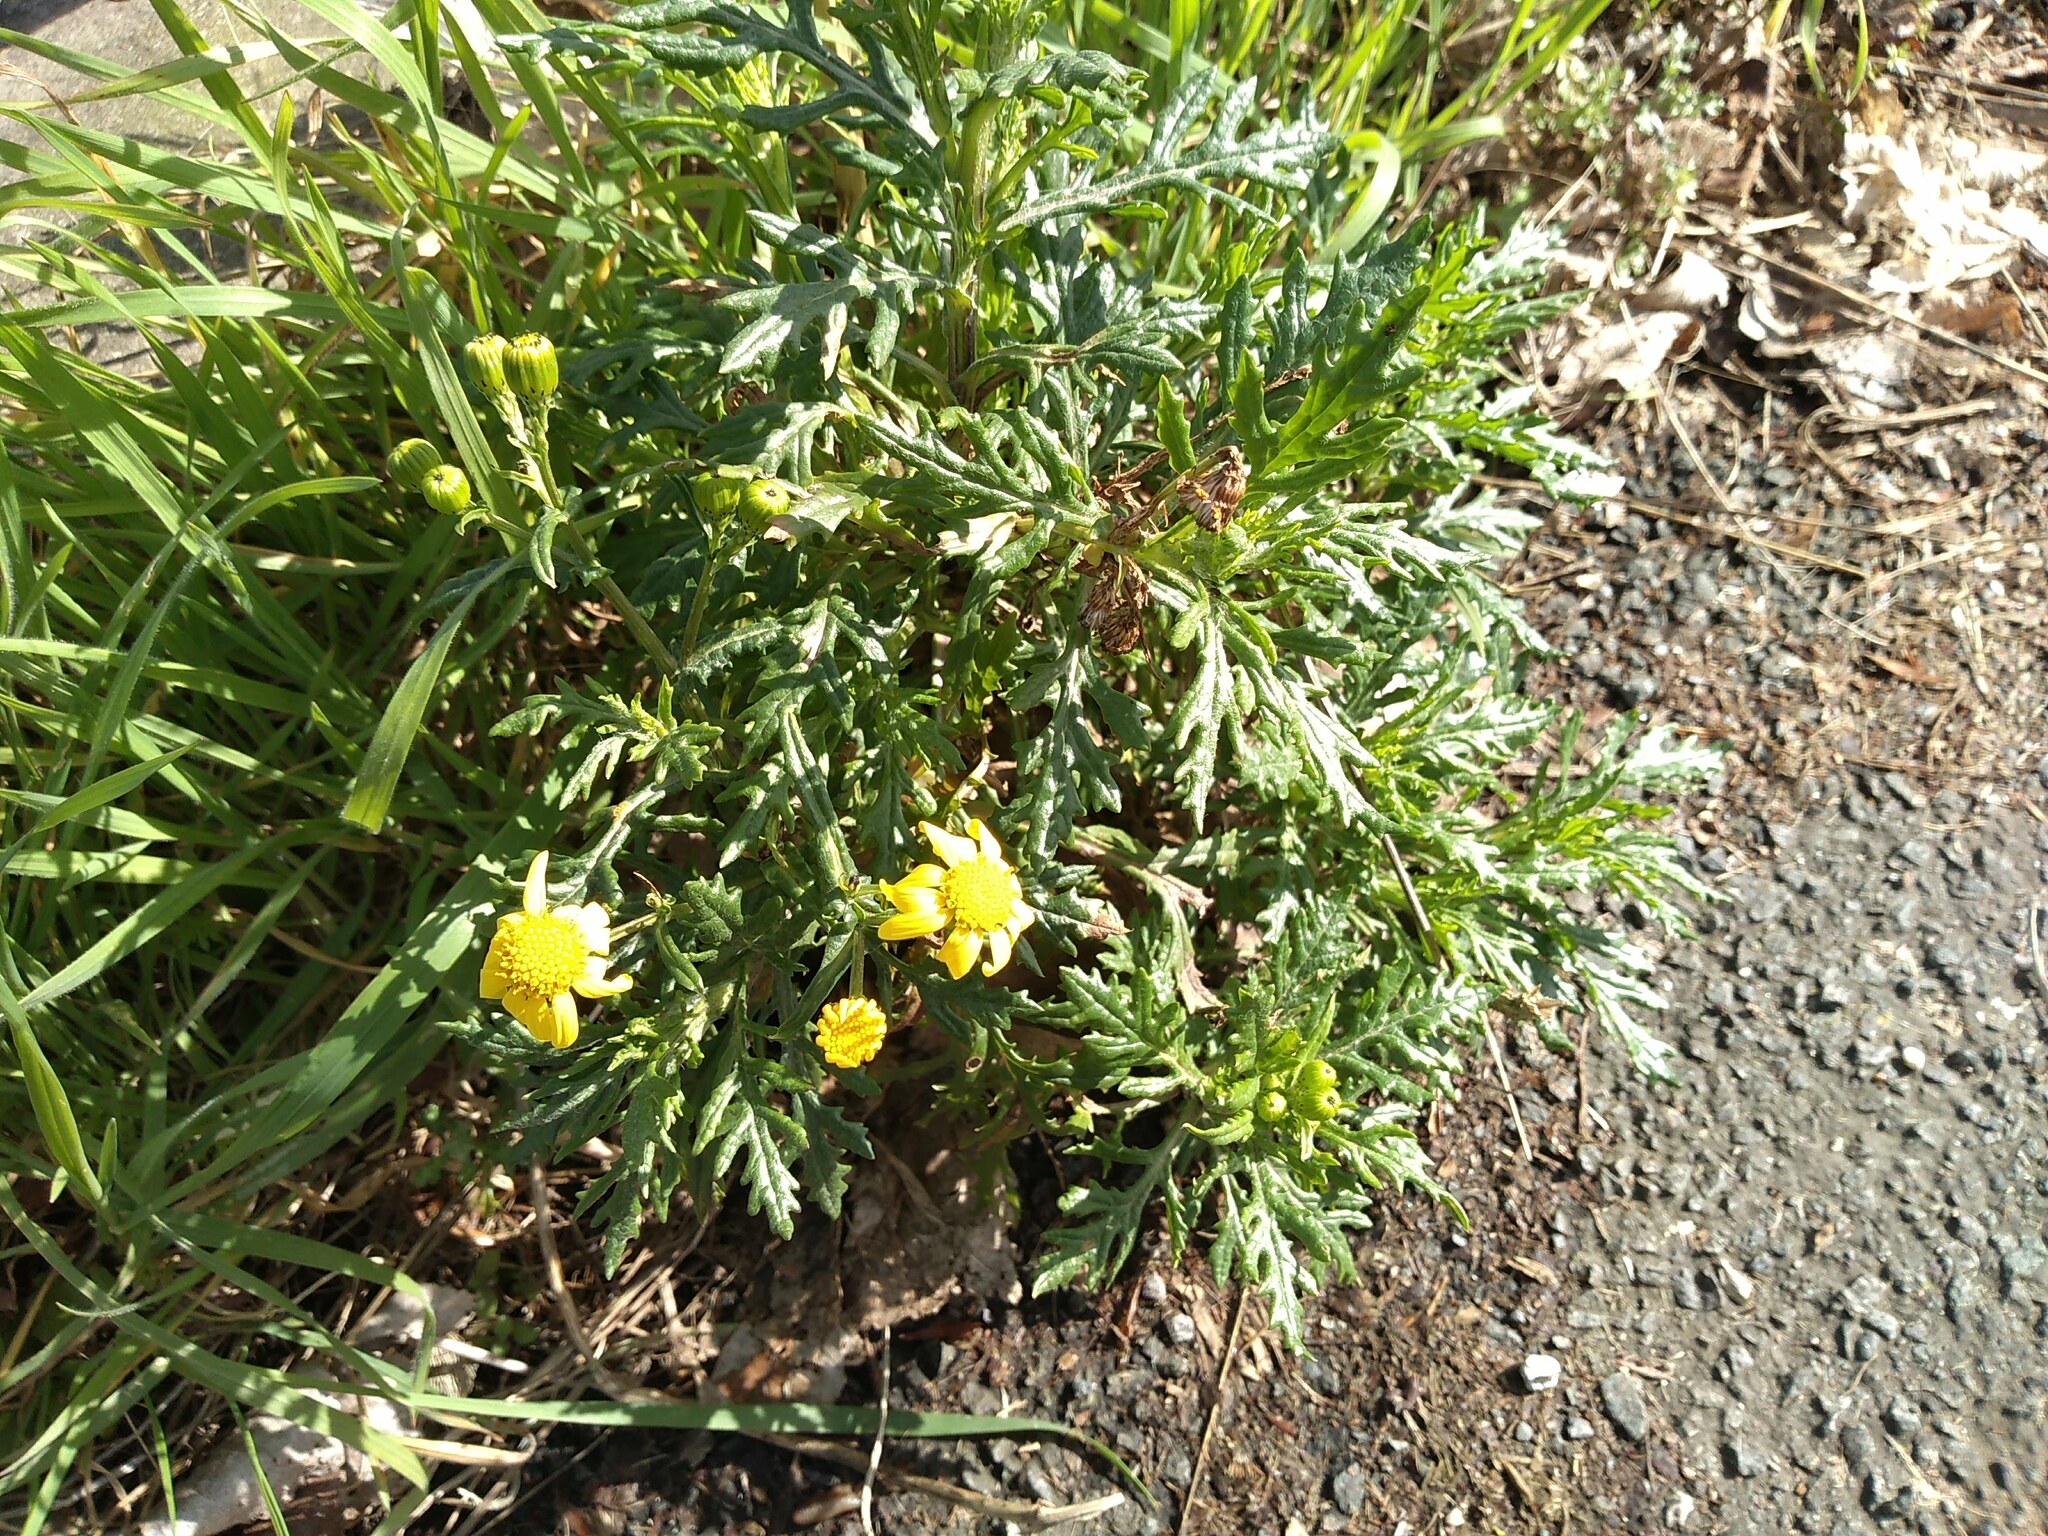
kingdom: Plantae
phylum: Tracheophyta
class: Magnoliopsida
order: Asterales
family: Asteraceae
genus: Senecio
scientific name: Senecio squalidus
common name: Oxford ragwort
